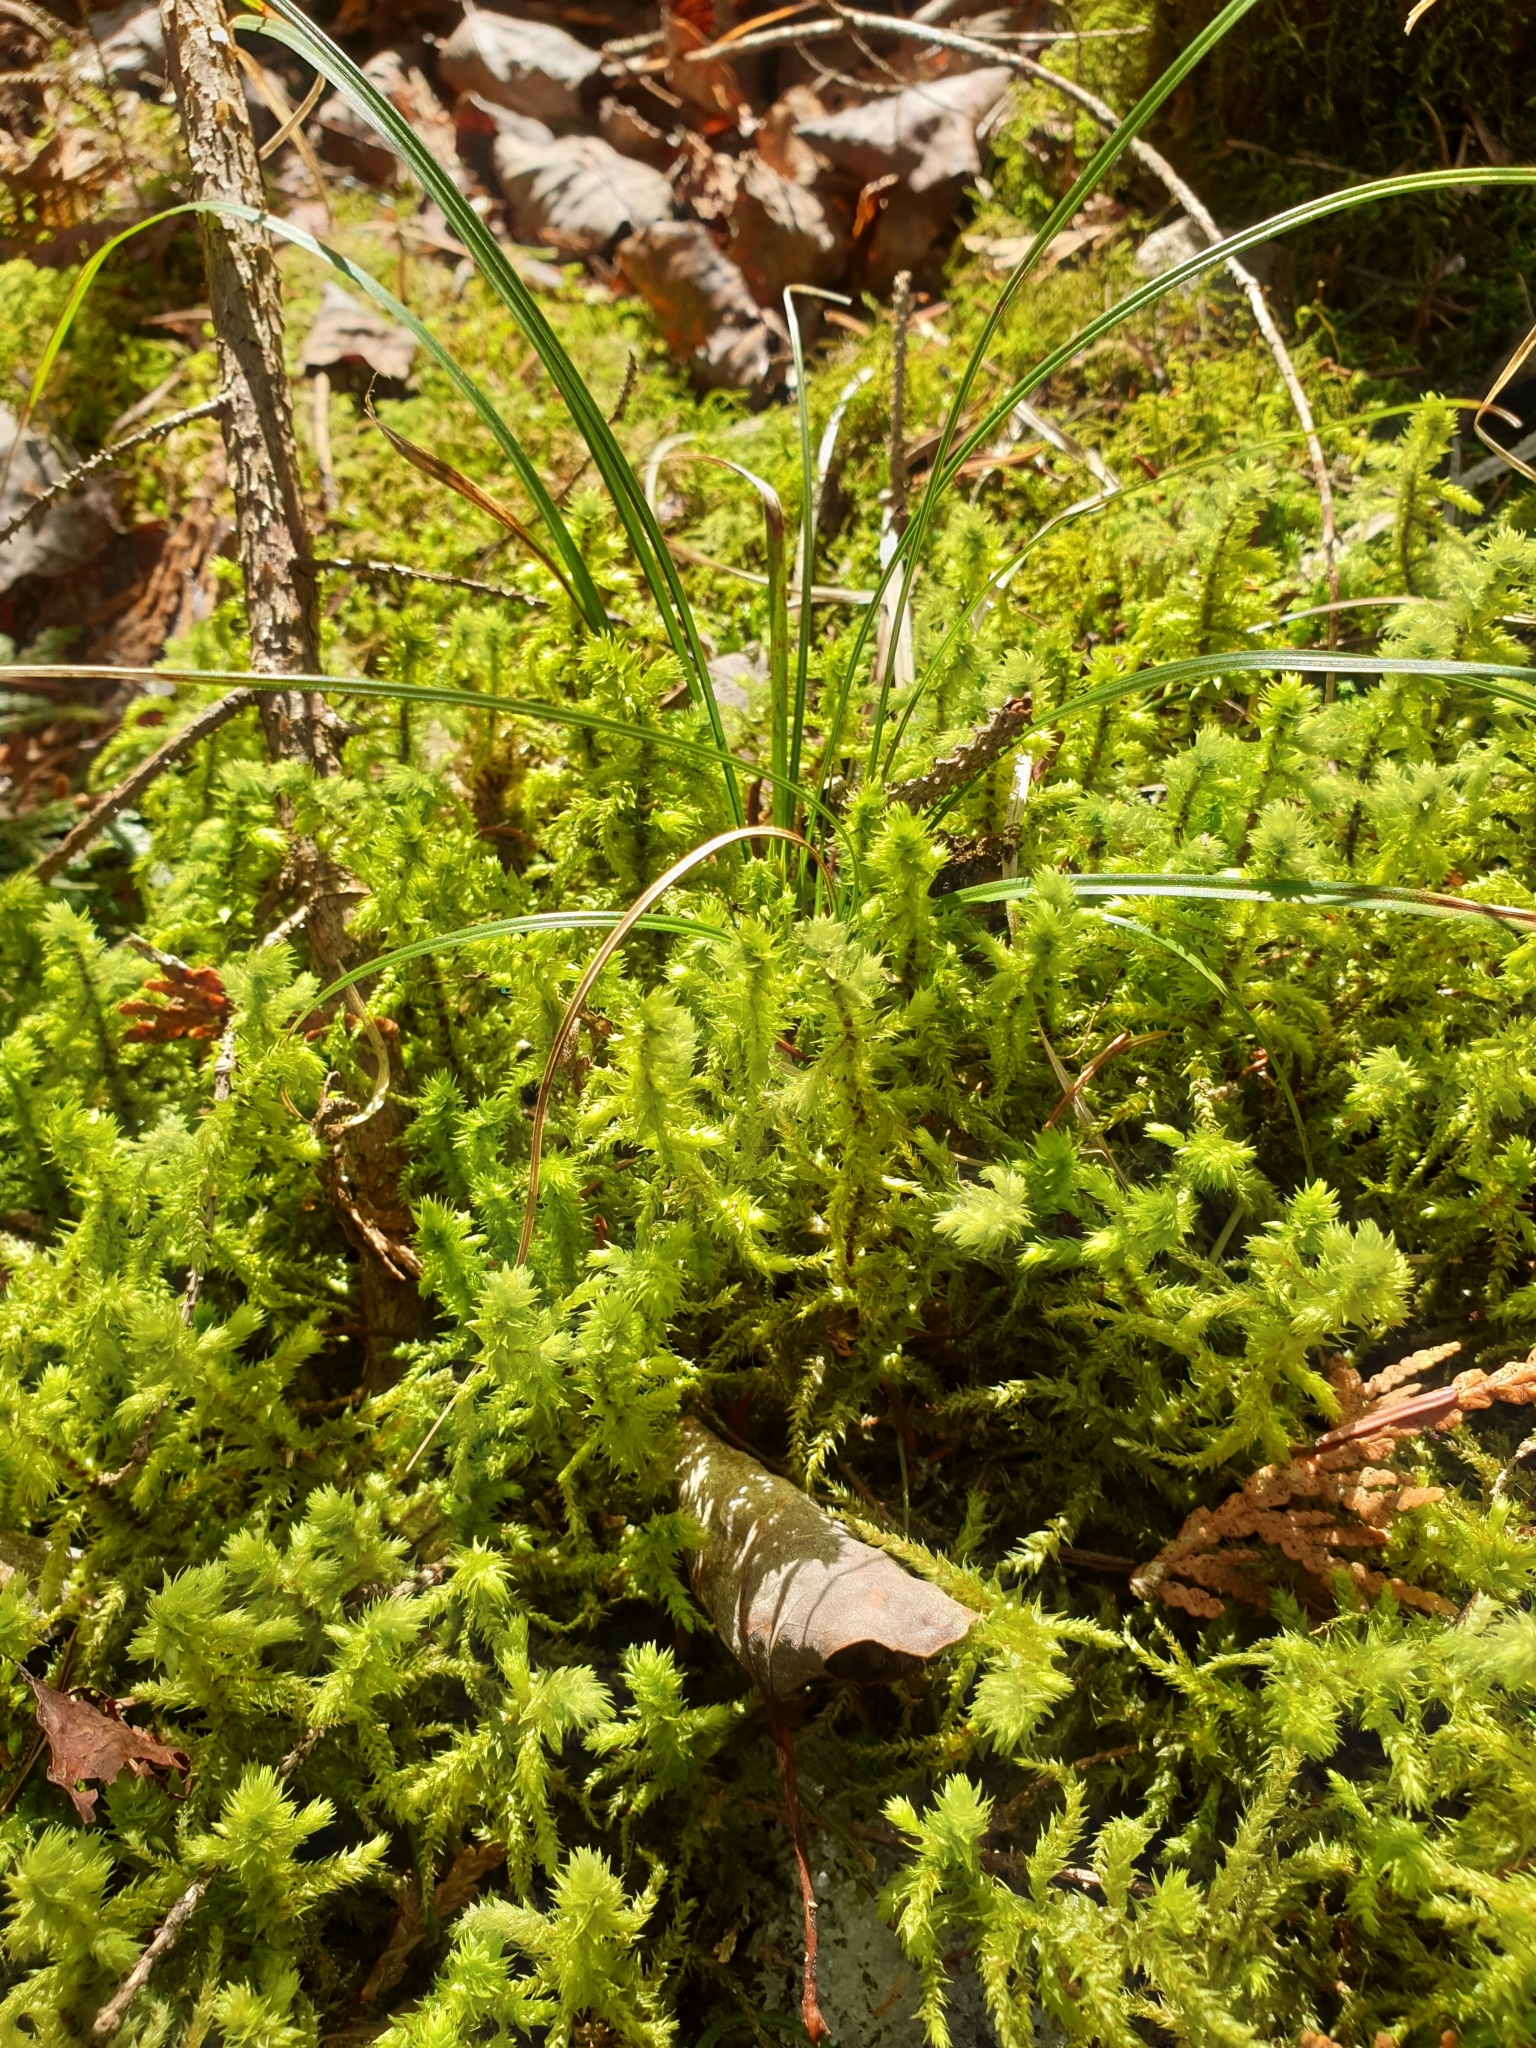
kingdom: Plantae
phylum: Bryophyta
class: Bryopsida
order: Hypnales
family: Hylocomiaceae
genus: Hylocomiadelphus
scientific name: Hylocomiadelphus triquetrus
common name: Rough goose neck moss
